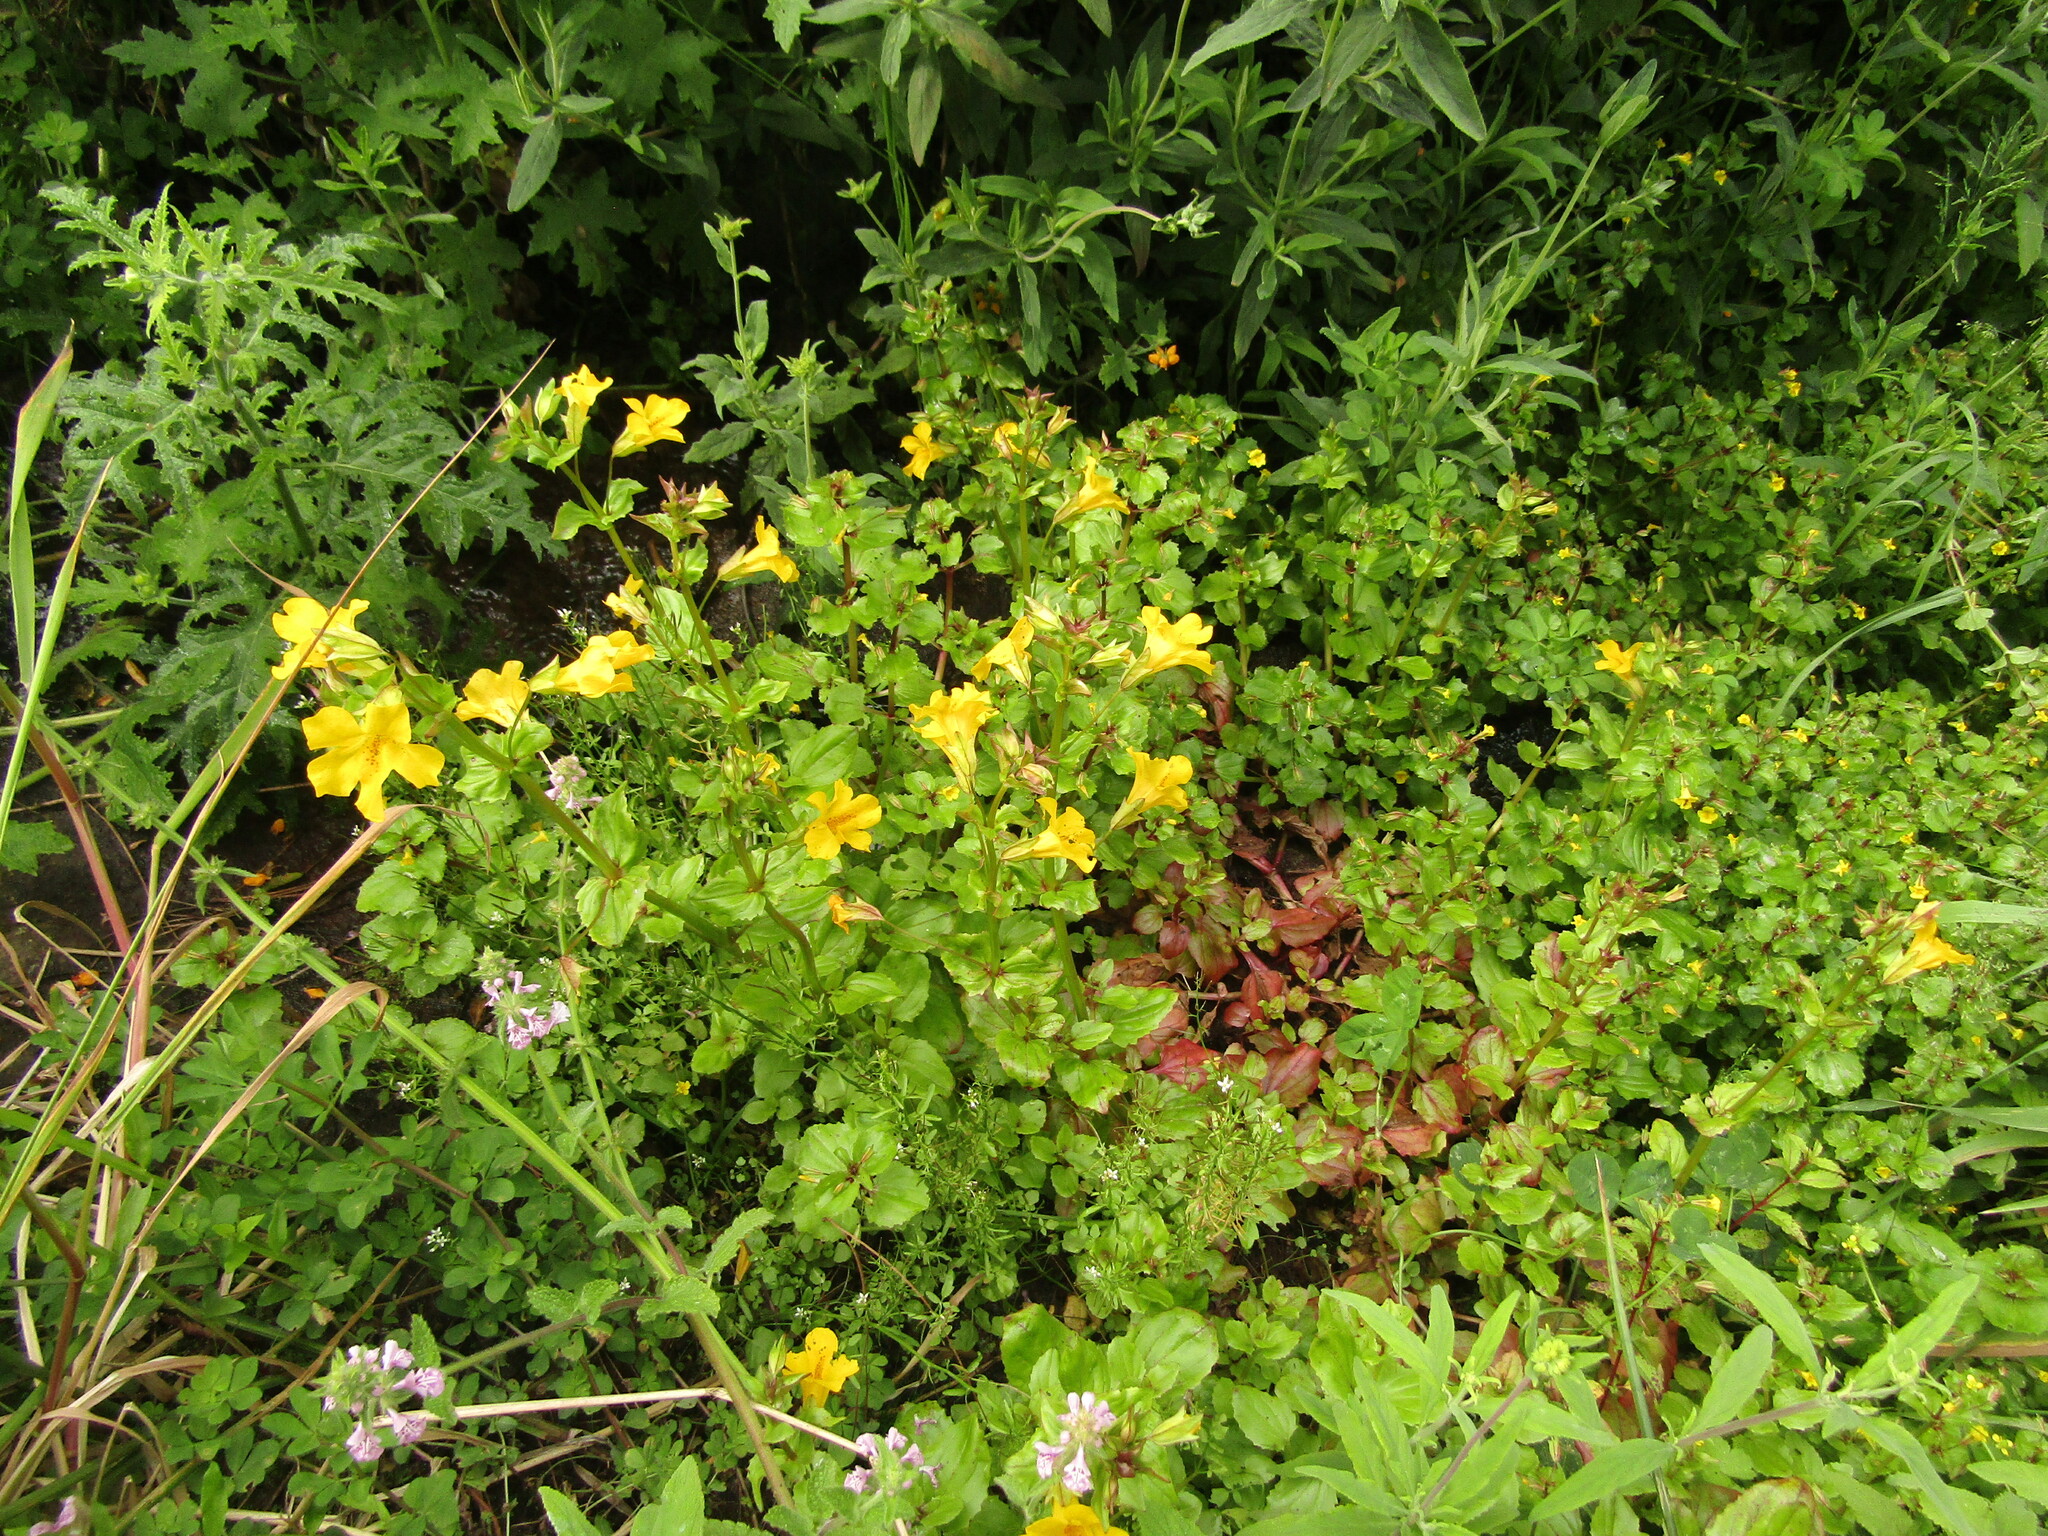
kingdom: Plantae
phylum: Tracheophyta
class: Magnoliopsida
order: Lamiales
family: Phrymaceae
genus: Erythranthe
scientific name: Erythranthe lutea
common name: Yellow monkey-flower
